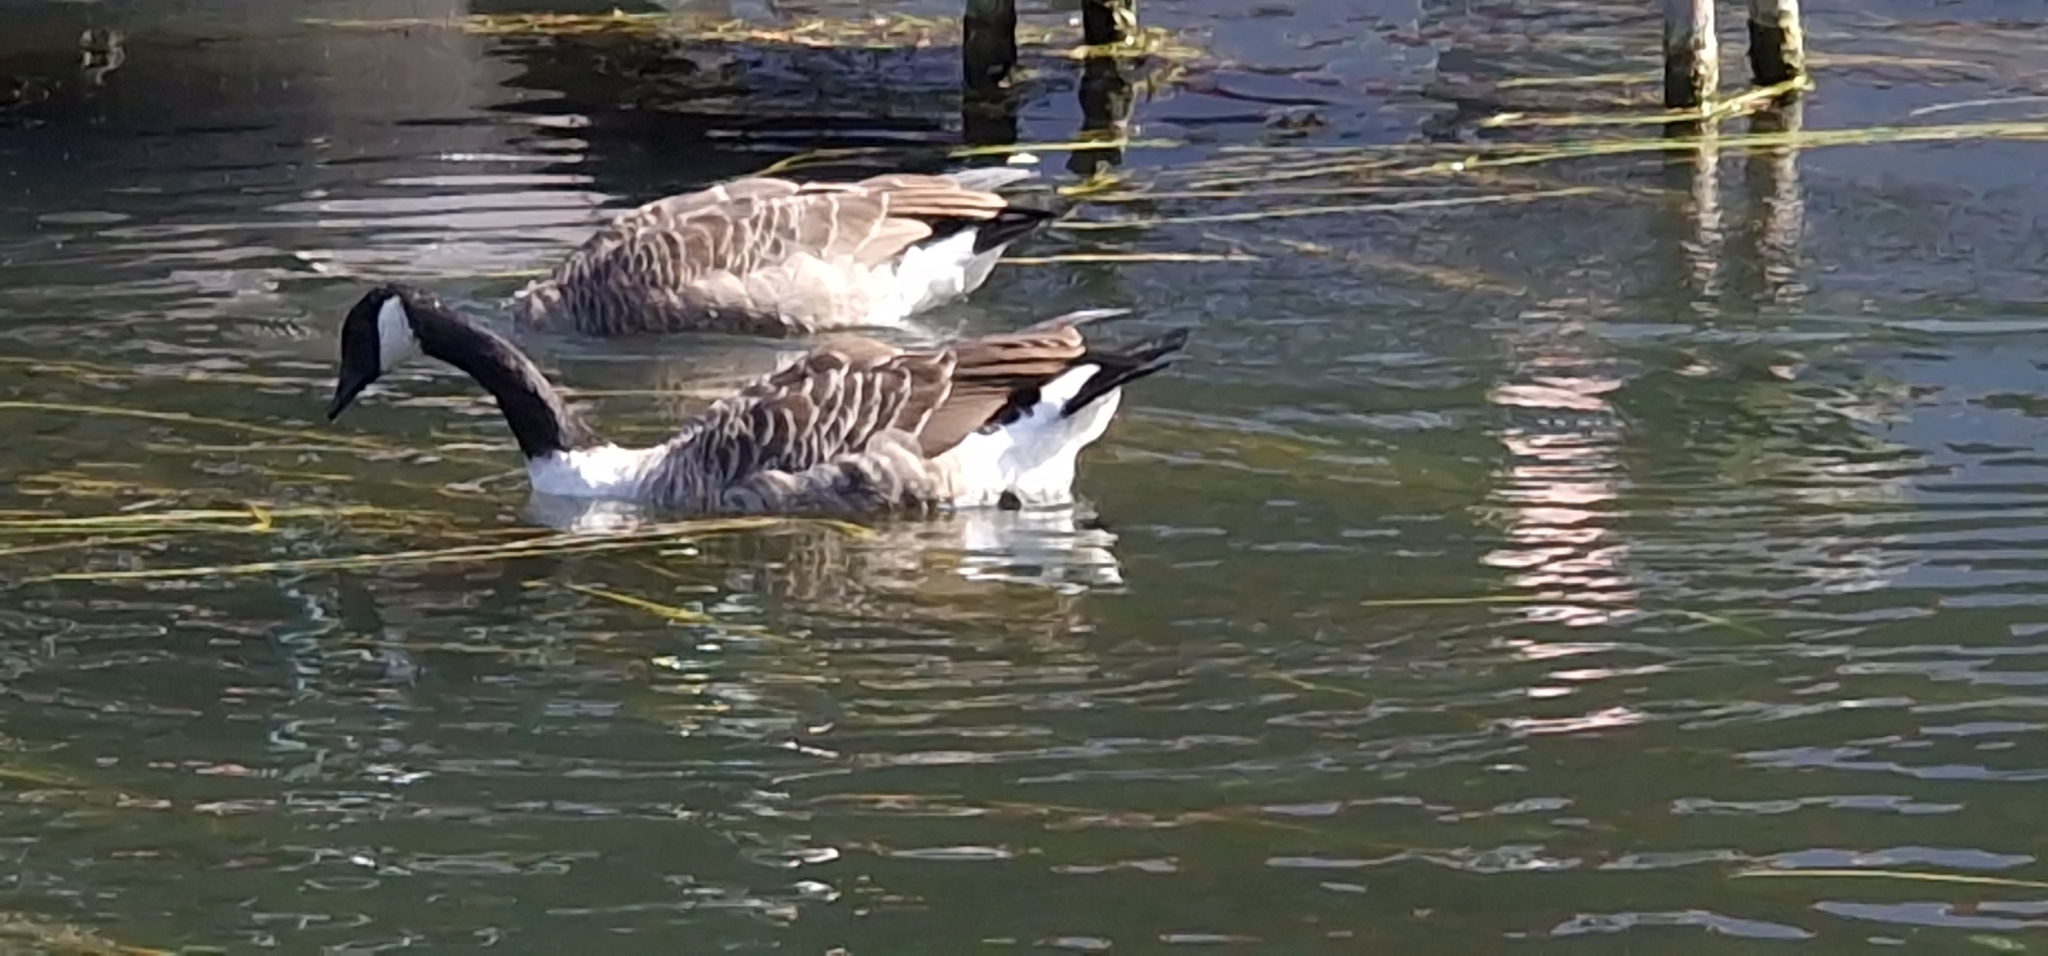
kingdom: Animalia
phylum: Chordata
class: Aves
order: Anseriformes
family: Anatidae
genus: Branta
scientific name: Branta canadensis
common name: Canada goose
